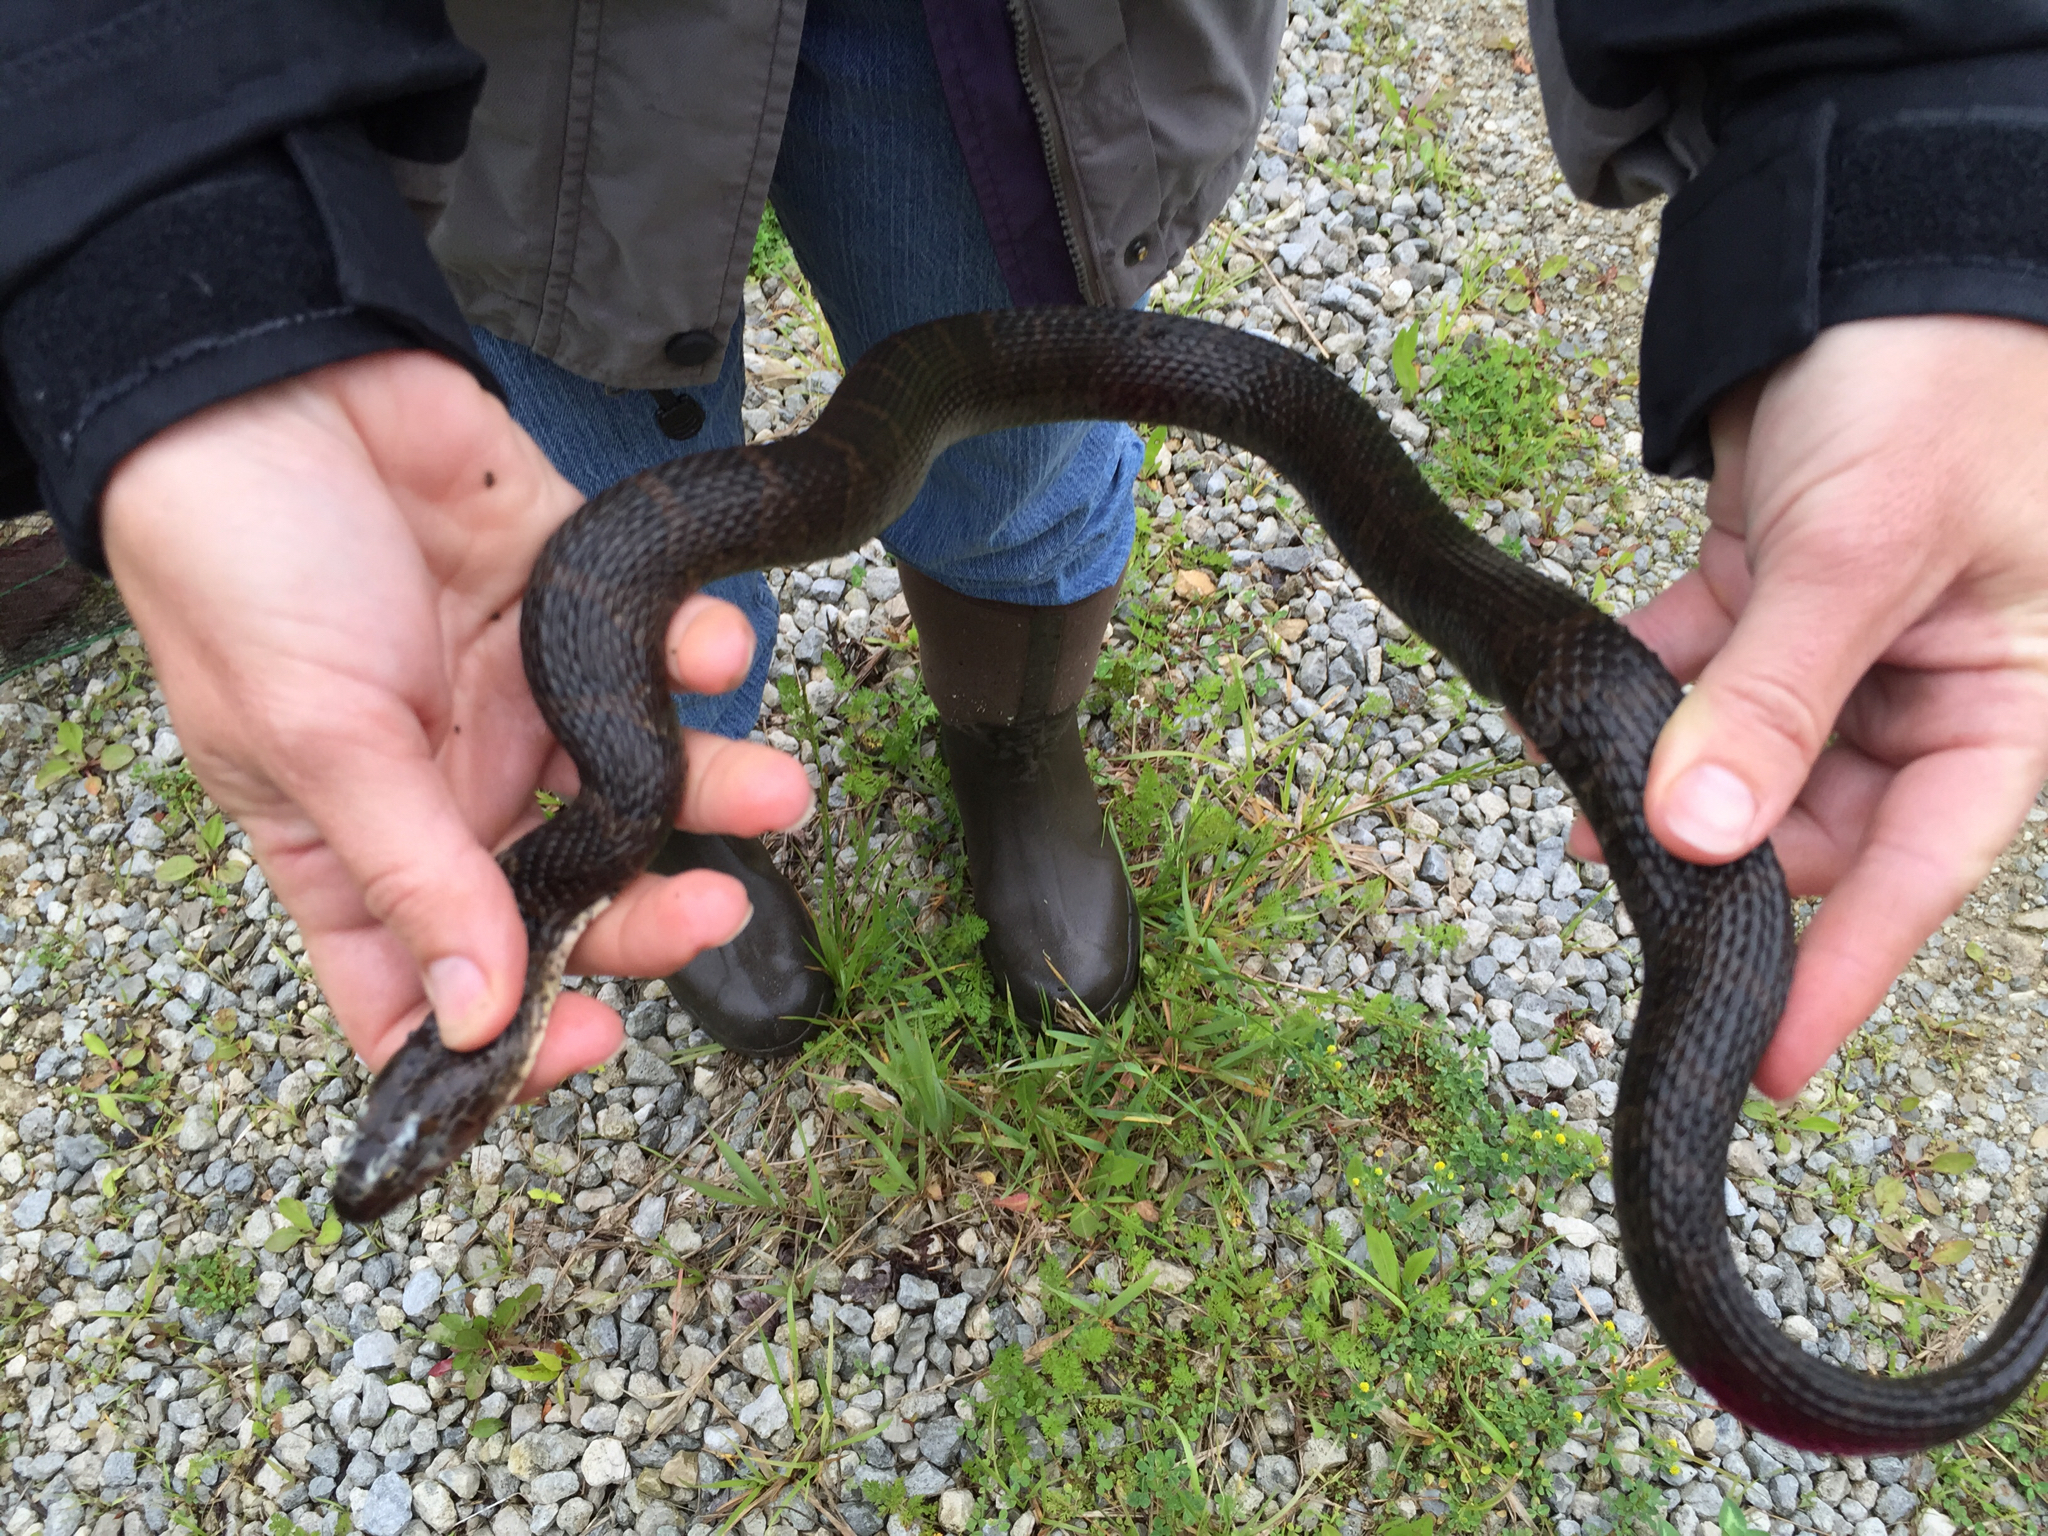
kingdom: Animalia
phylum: Chordata
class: Squamata
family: Colubridae
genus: Nerodia
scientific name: Nerodia sipedon
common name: Northern water snake
